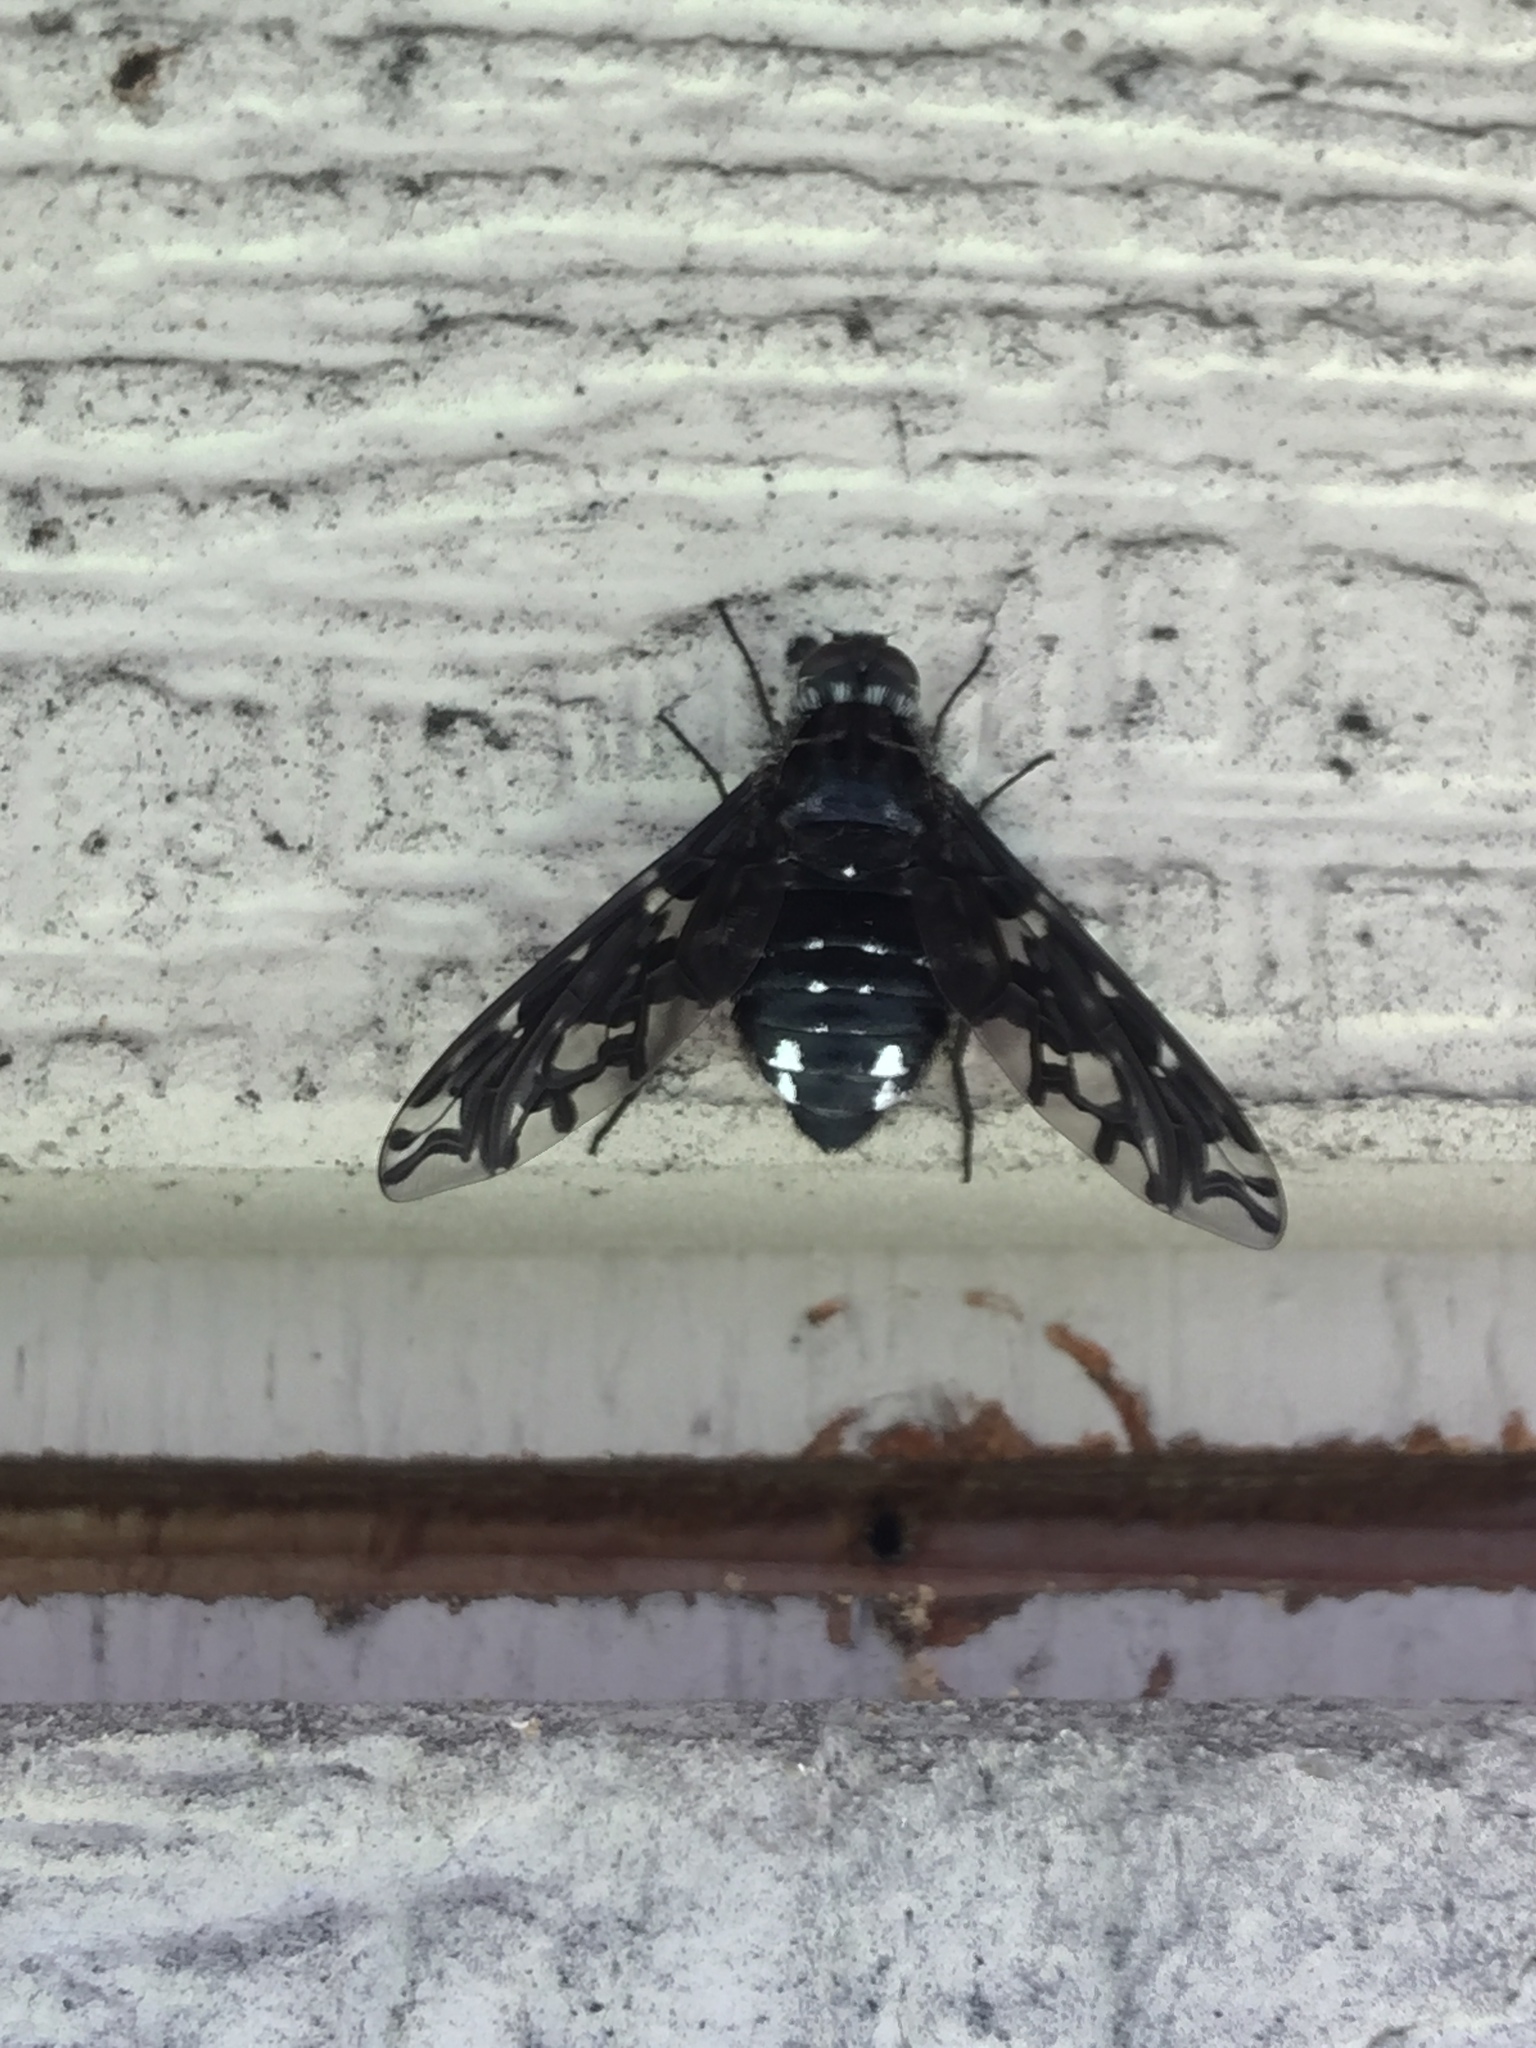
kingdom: Animalia
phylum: Arthropoda
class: Insecta
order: Diptera
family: Bombyliidae
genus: Xenox
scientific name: Xenox tigrinus
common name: Tiger bee fly
